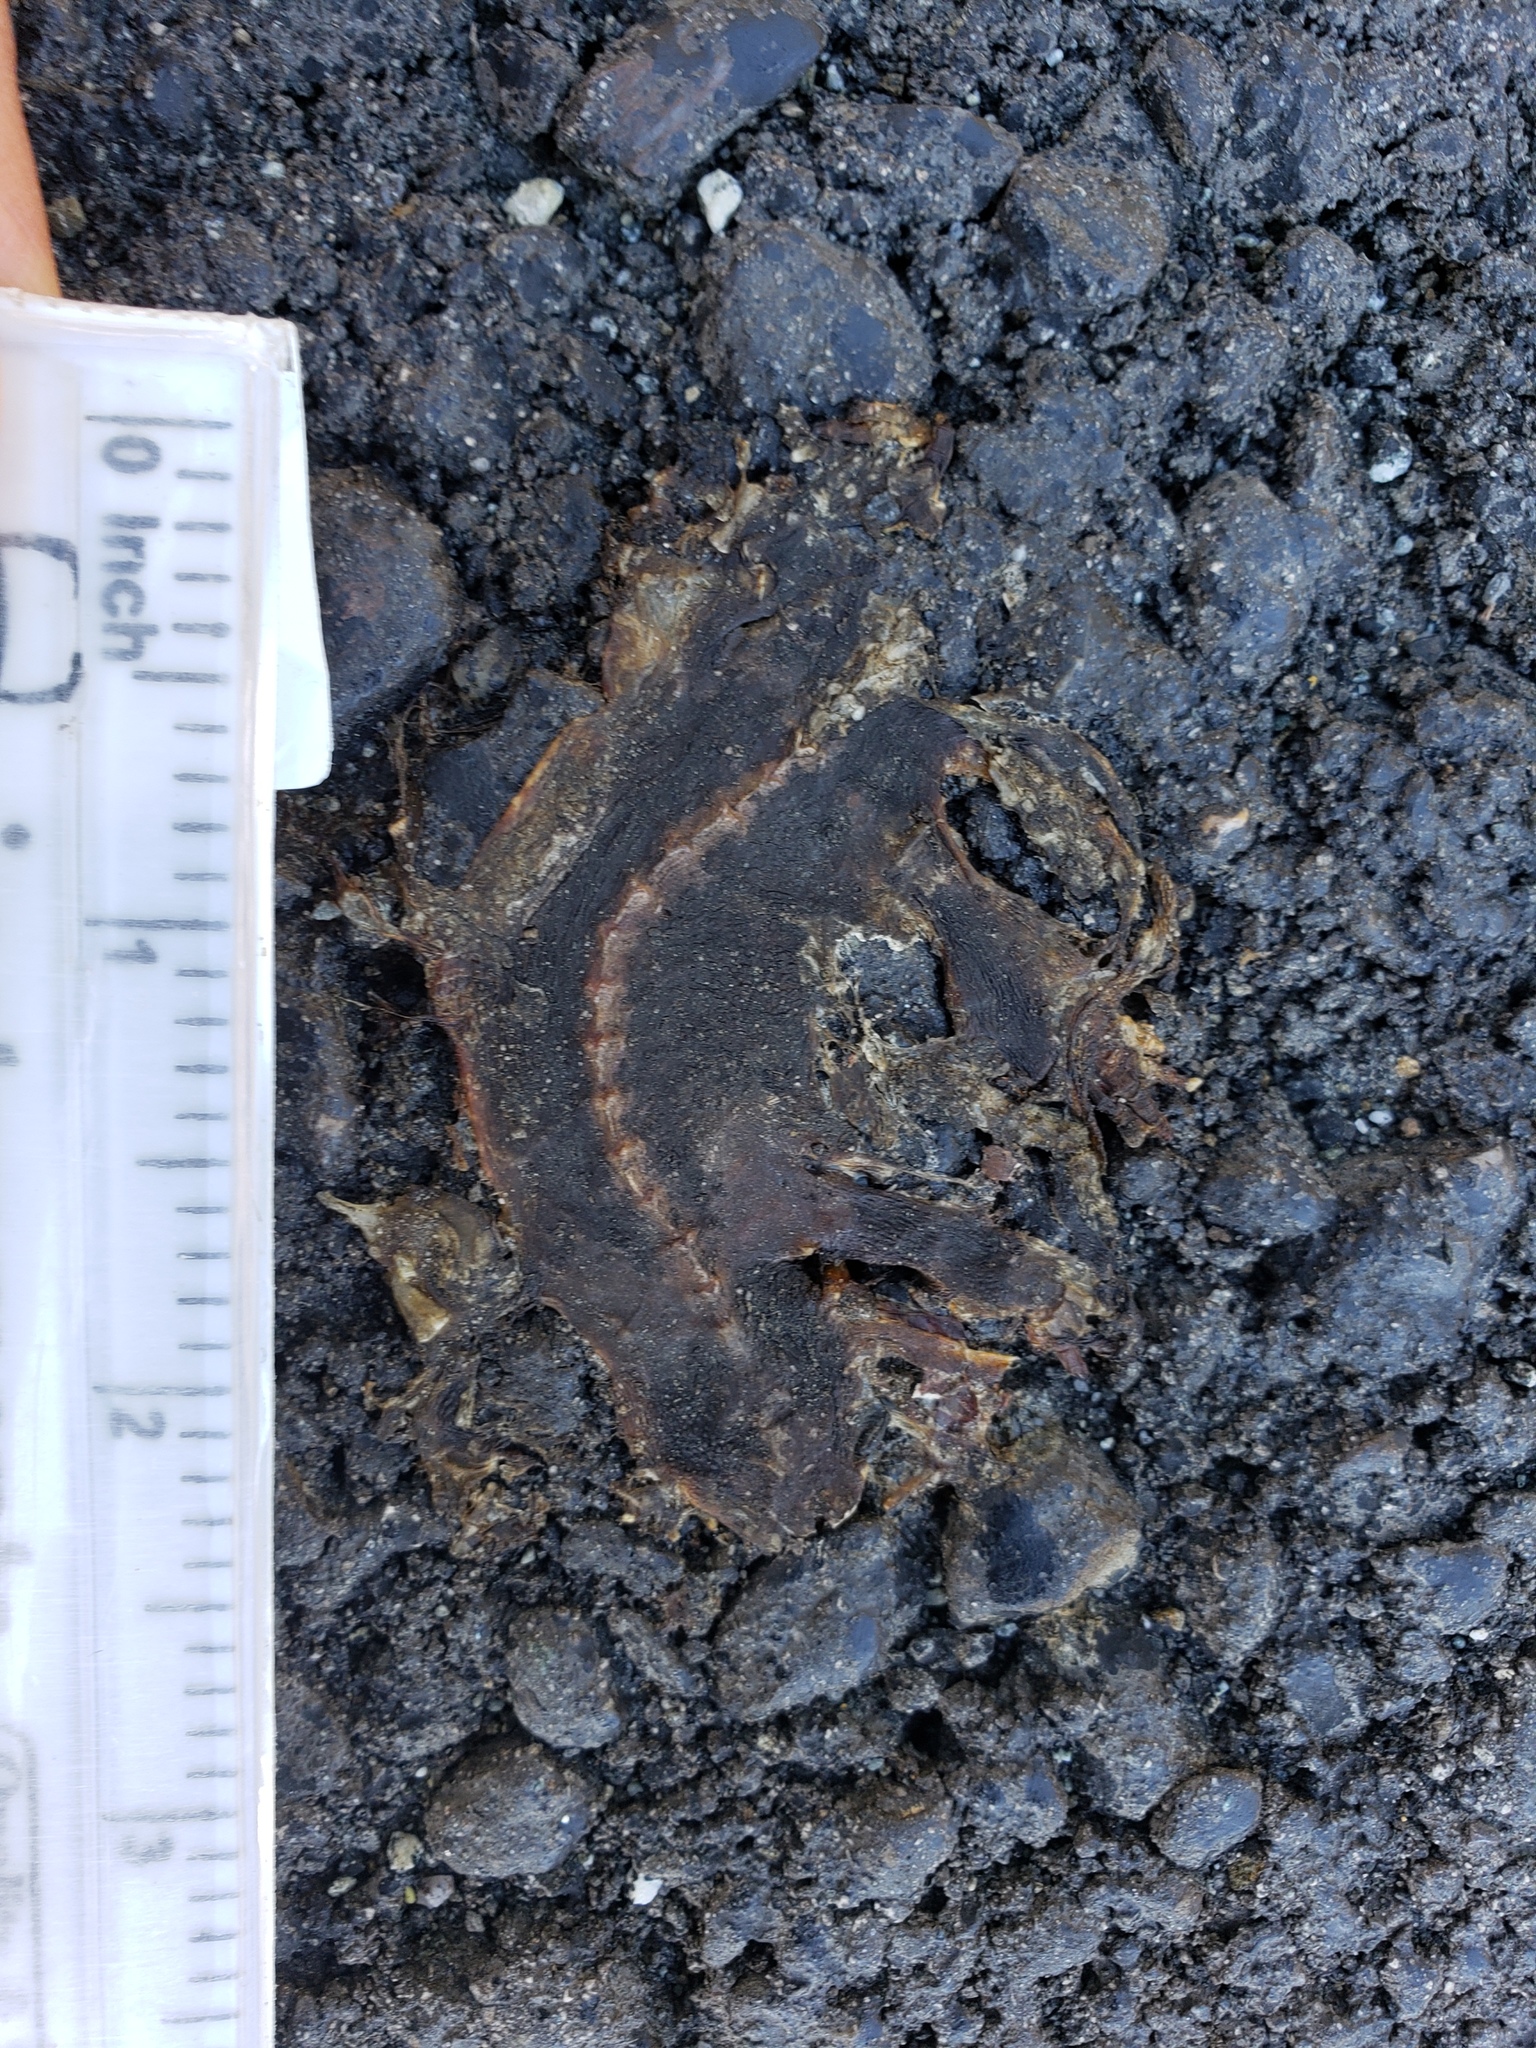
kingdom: Animalia
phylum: Chordata
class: Amphibia
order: Caudata
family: Salamandridae
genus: Taricha
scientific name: Taricha
